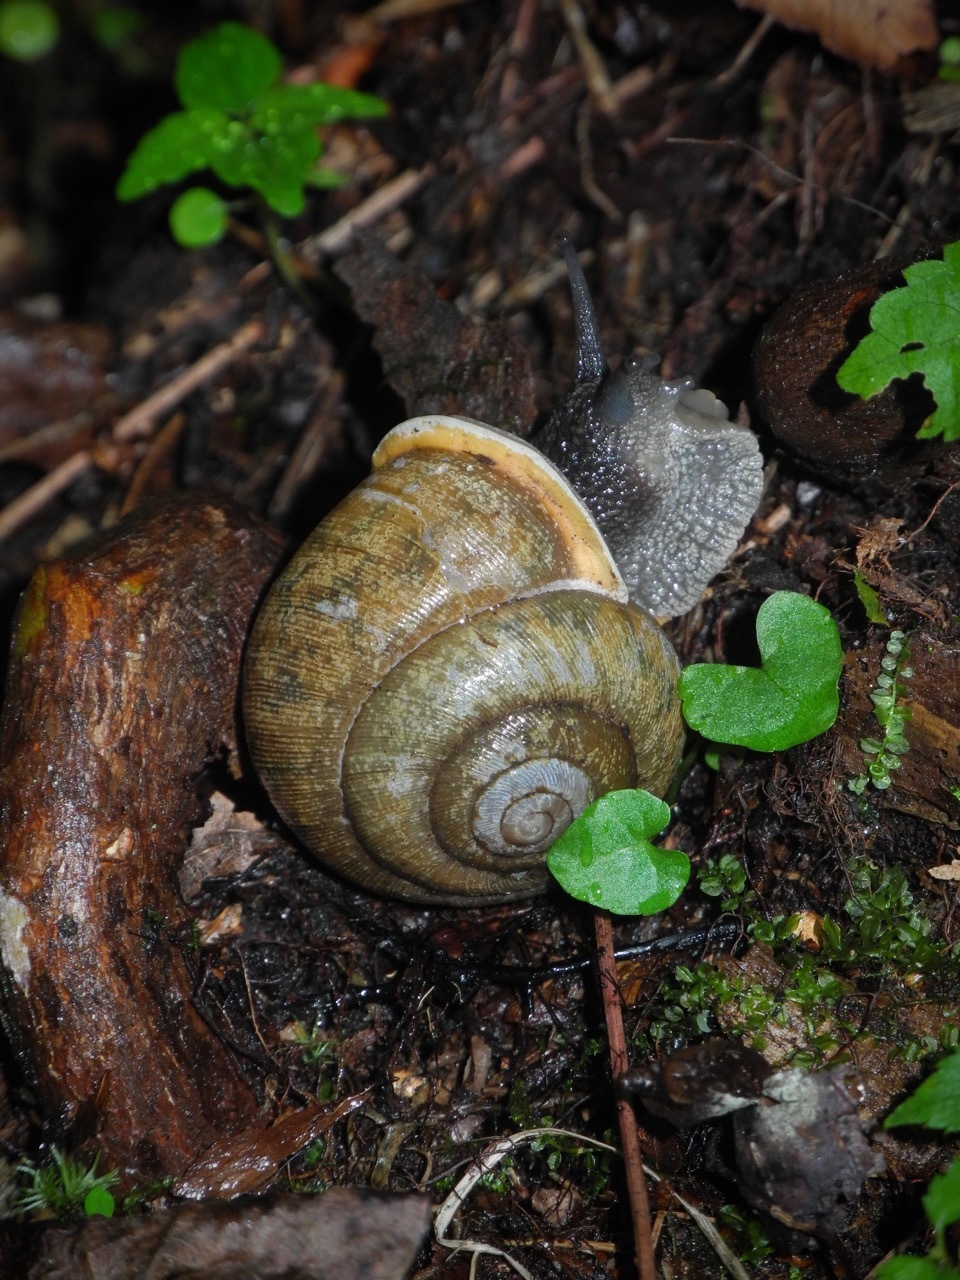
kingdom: Animalia
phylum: Mollusca
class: Gastropoda
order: Stylommatophora
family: Polygyridae
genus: Neohelix
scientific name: Neohelix major
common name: Southeastern whitelip
